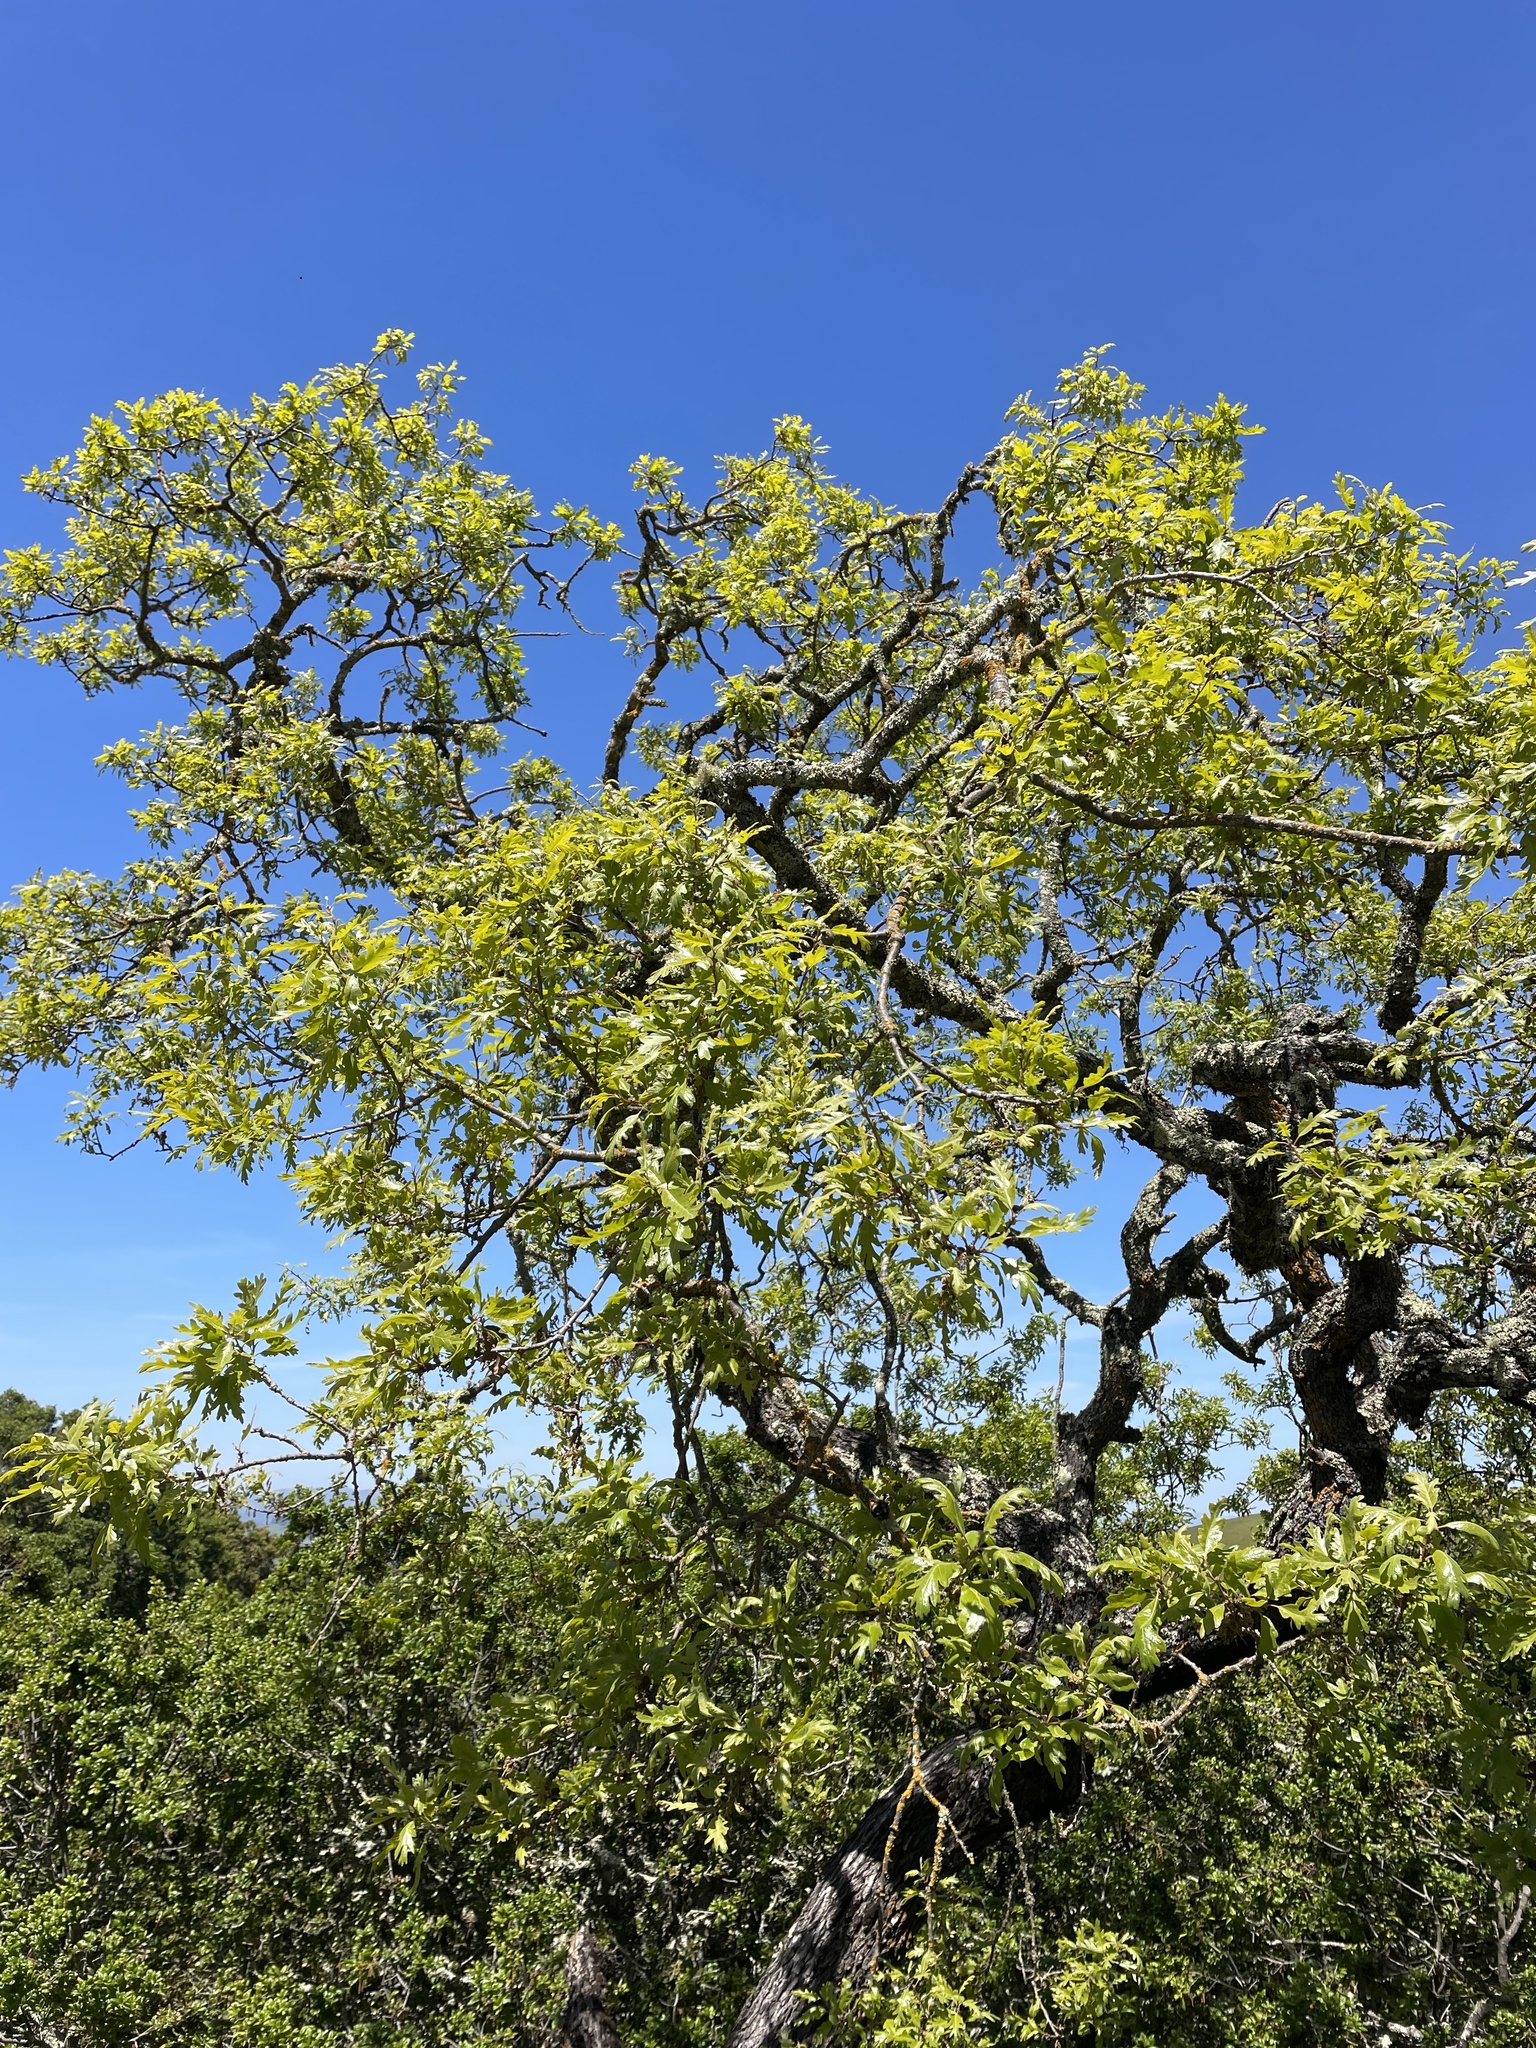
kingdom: Plantae
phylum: Tracheophyta
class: Magnoliopsida
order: Fagales
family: Fagaceae
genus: Quercus
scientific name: Quercus lobata
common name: Valley oak
